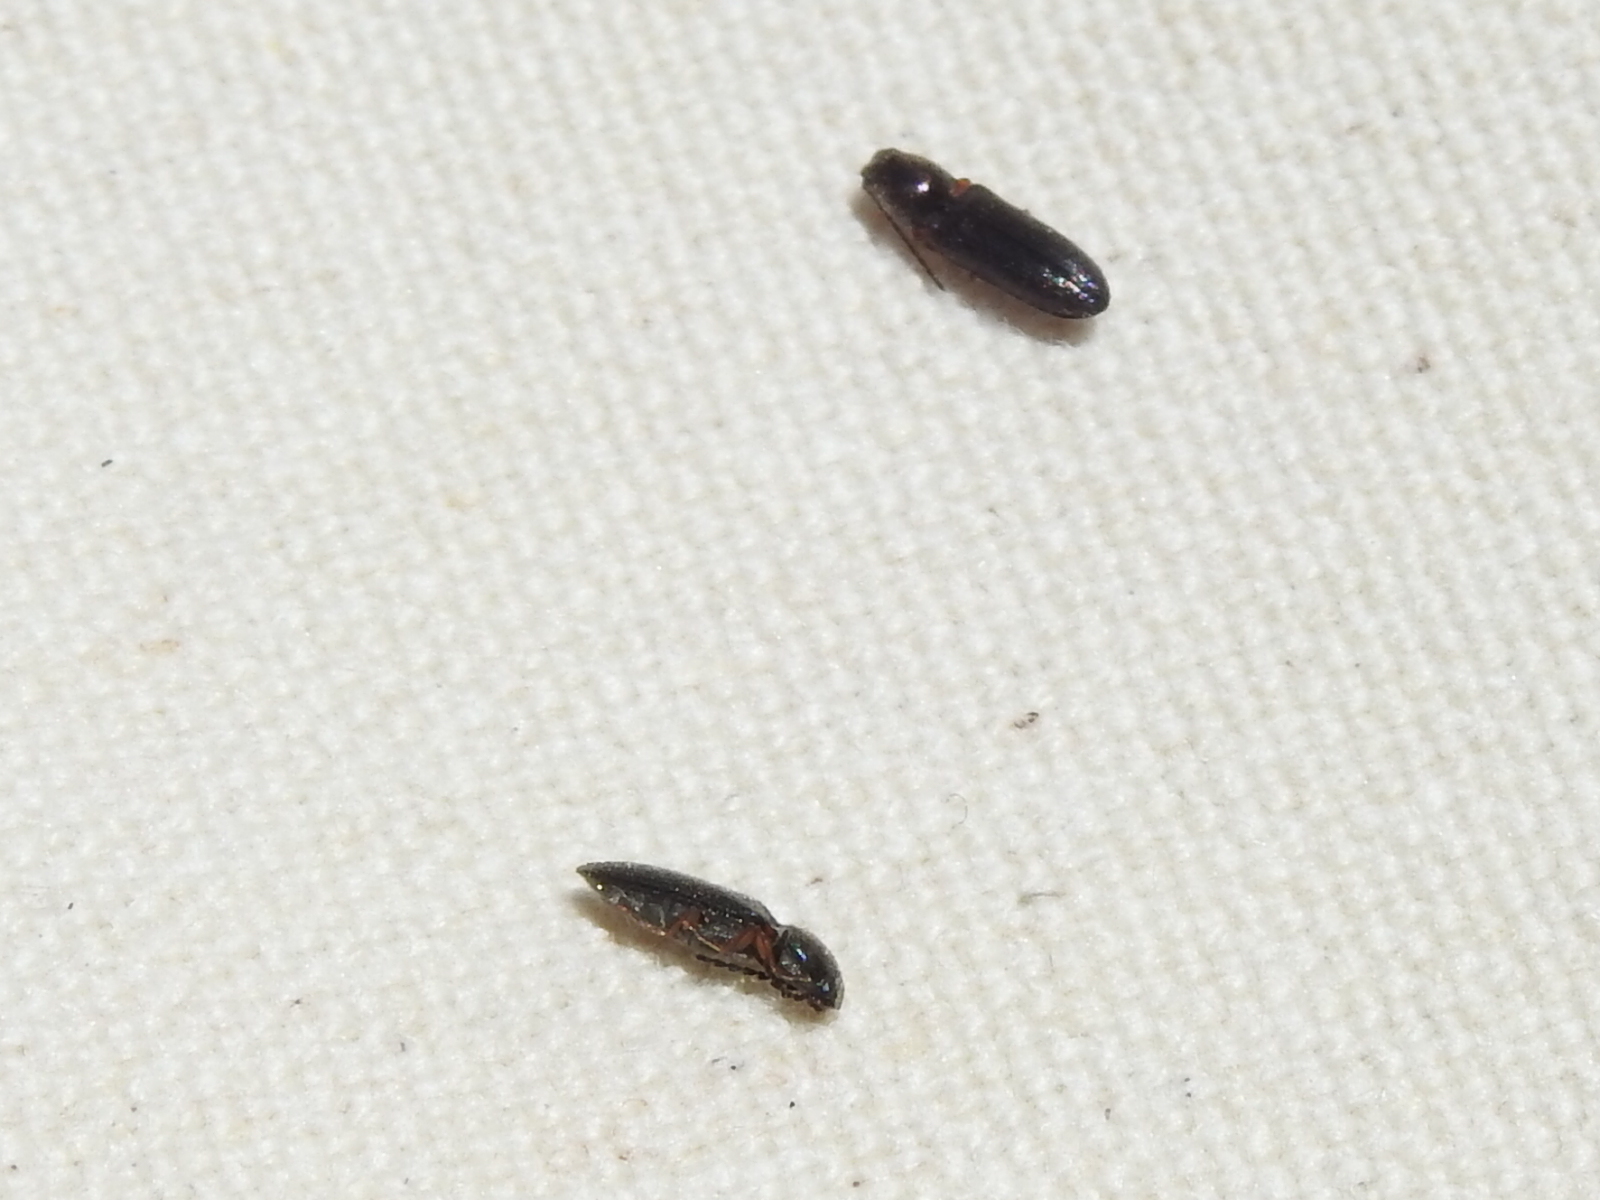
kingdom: Animalia
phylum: Arthropoda
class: Insecta
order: Coleoptera
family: Elateridae
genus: Limonius
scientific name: Limonius basilaris
